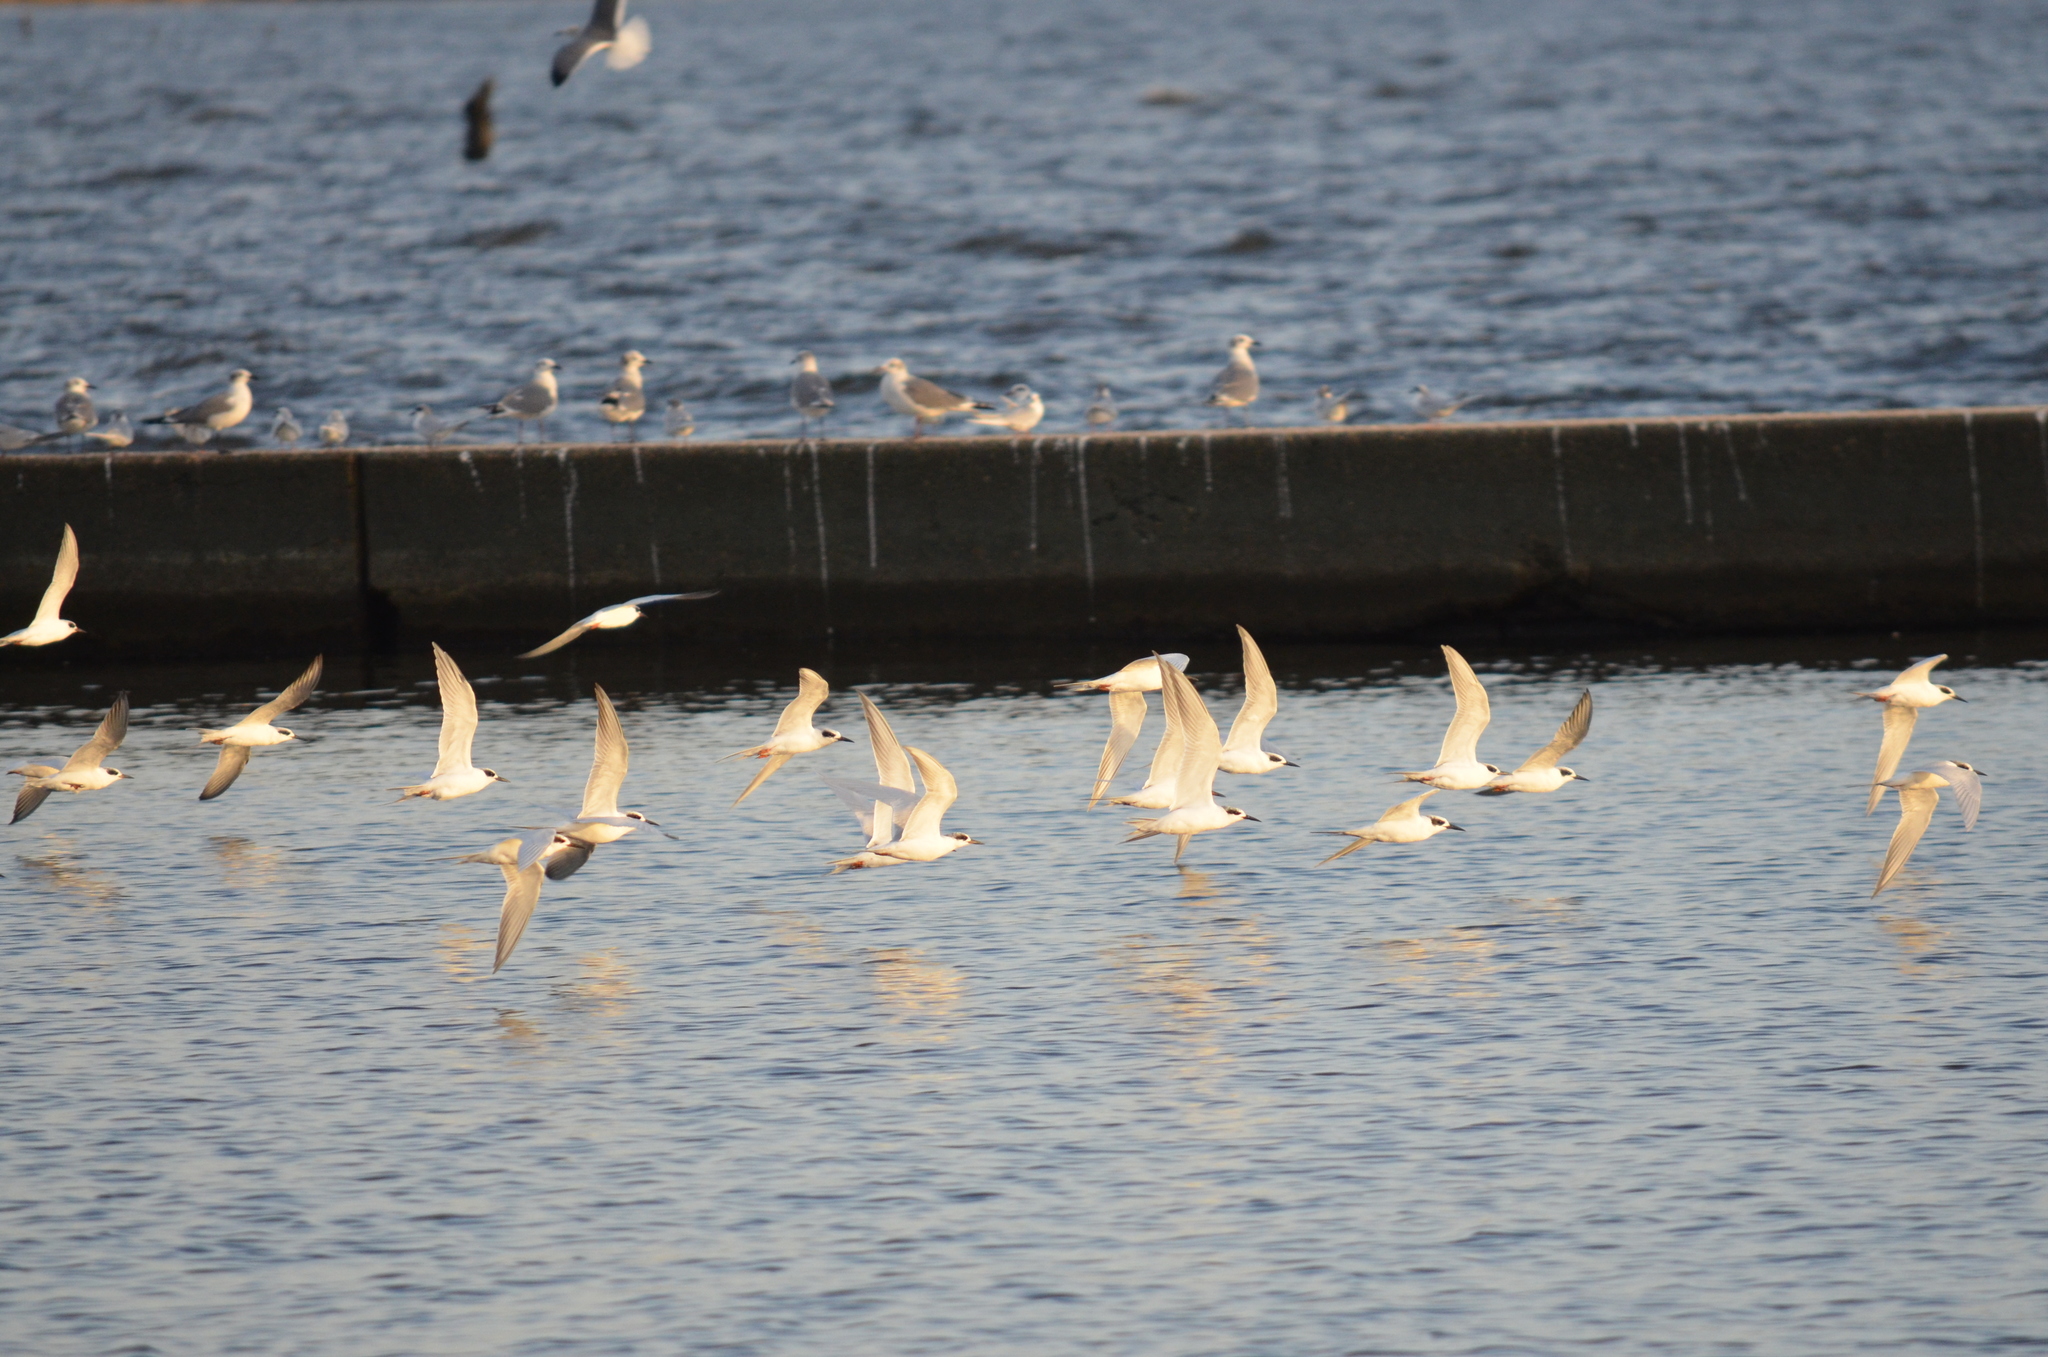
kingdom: Animalia
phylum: Chordata
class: Aves
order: Charadriiformes
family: Laridae
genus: Sterna
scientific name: Sterna forsteri
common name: Forster's tern
